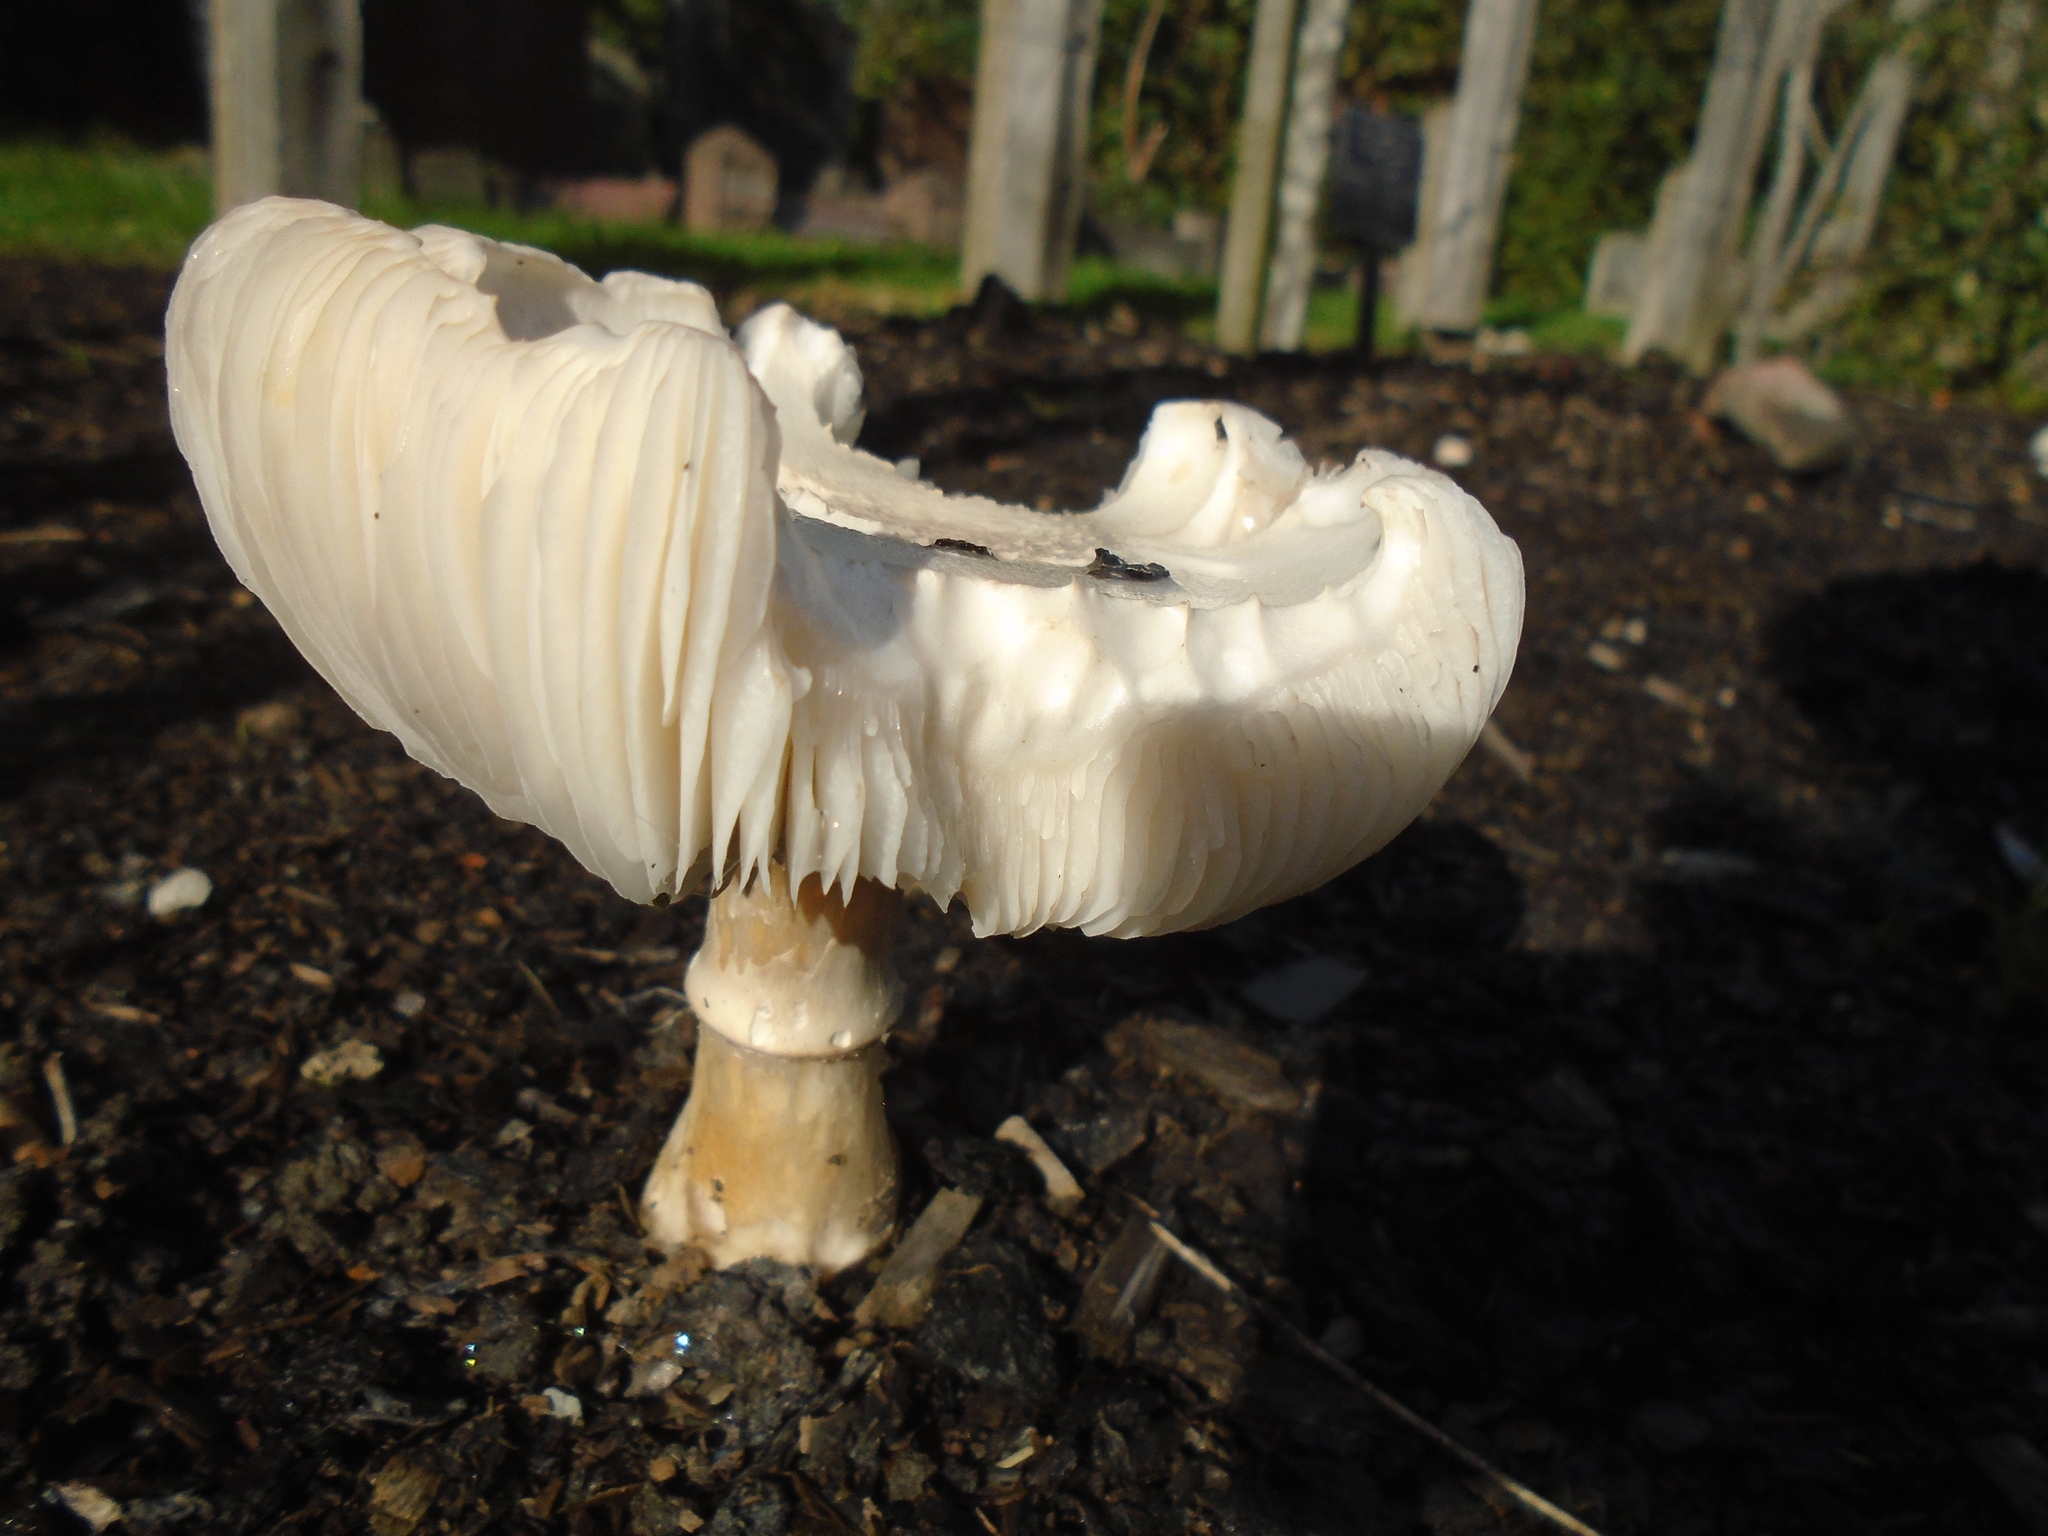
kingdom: Fungi
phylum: Basidiomycota
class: Agaricomycetes
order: Agaricales
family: Agaricaceae
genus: Leucoagaricus
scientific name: Leucoagaricus leucothites
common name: White dapperling
